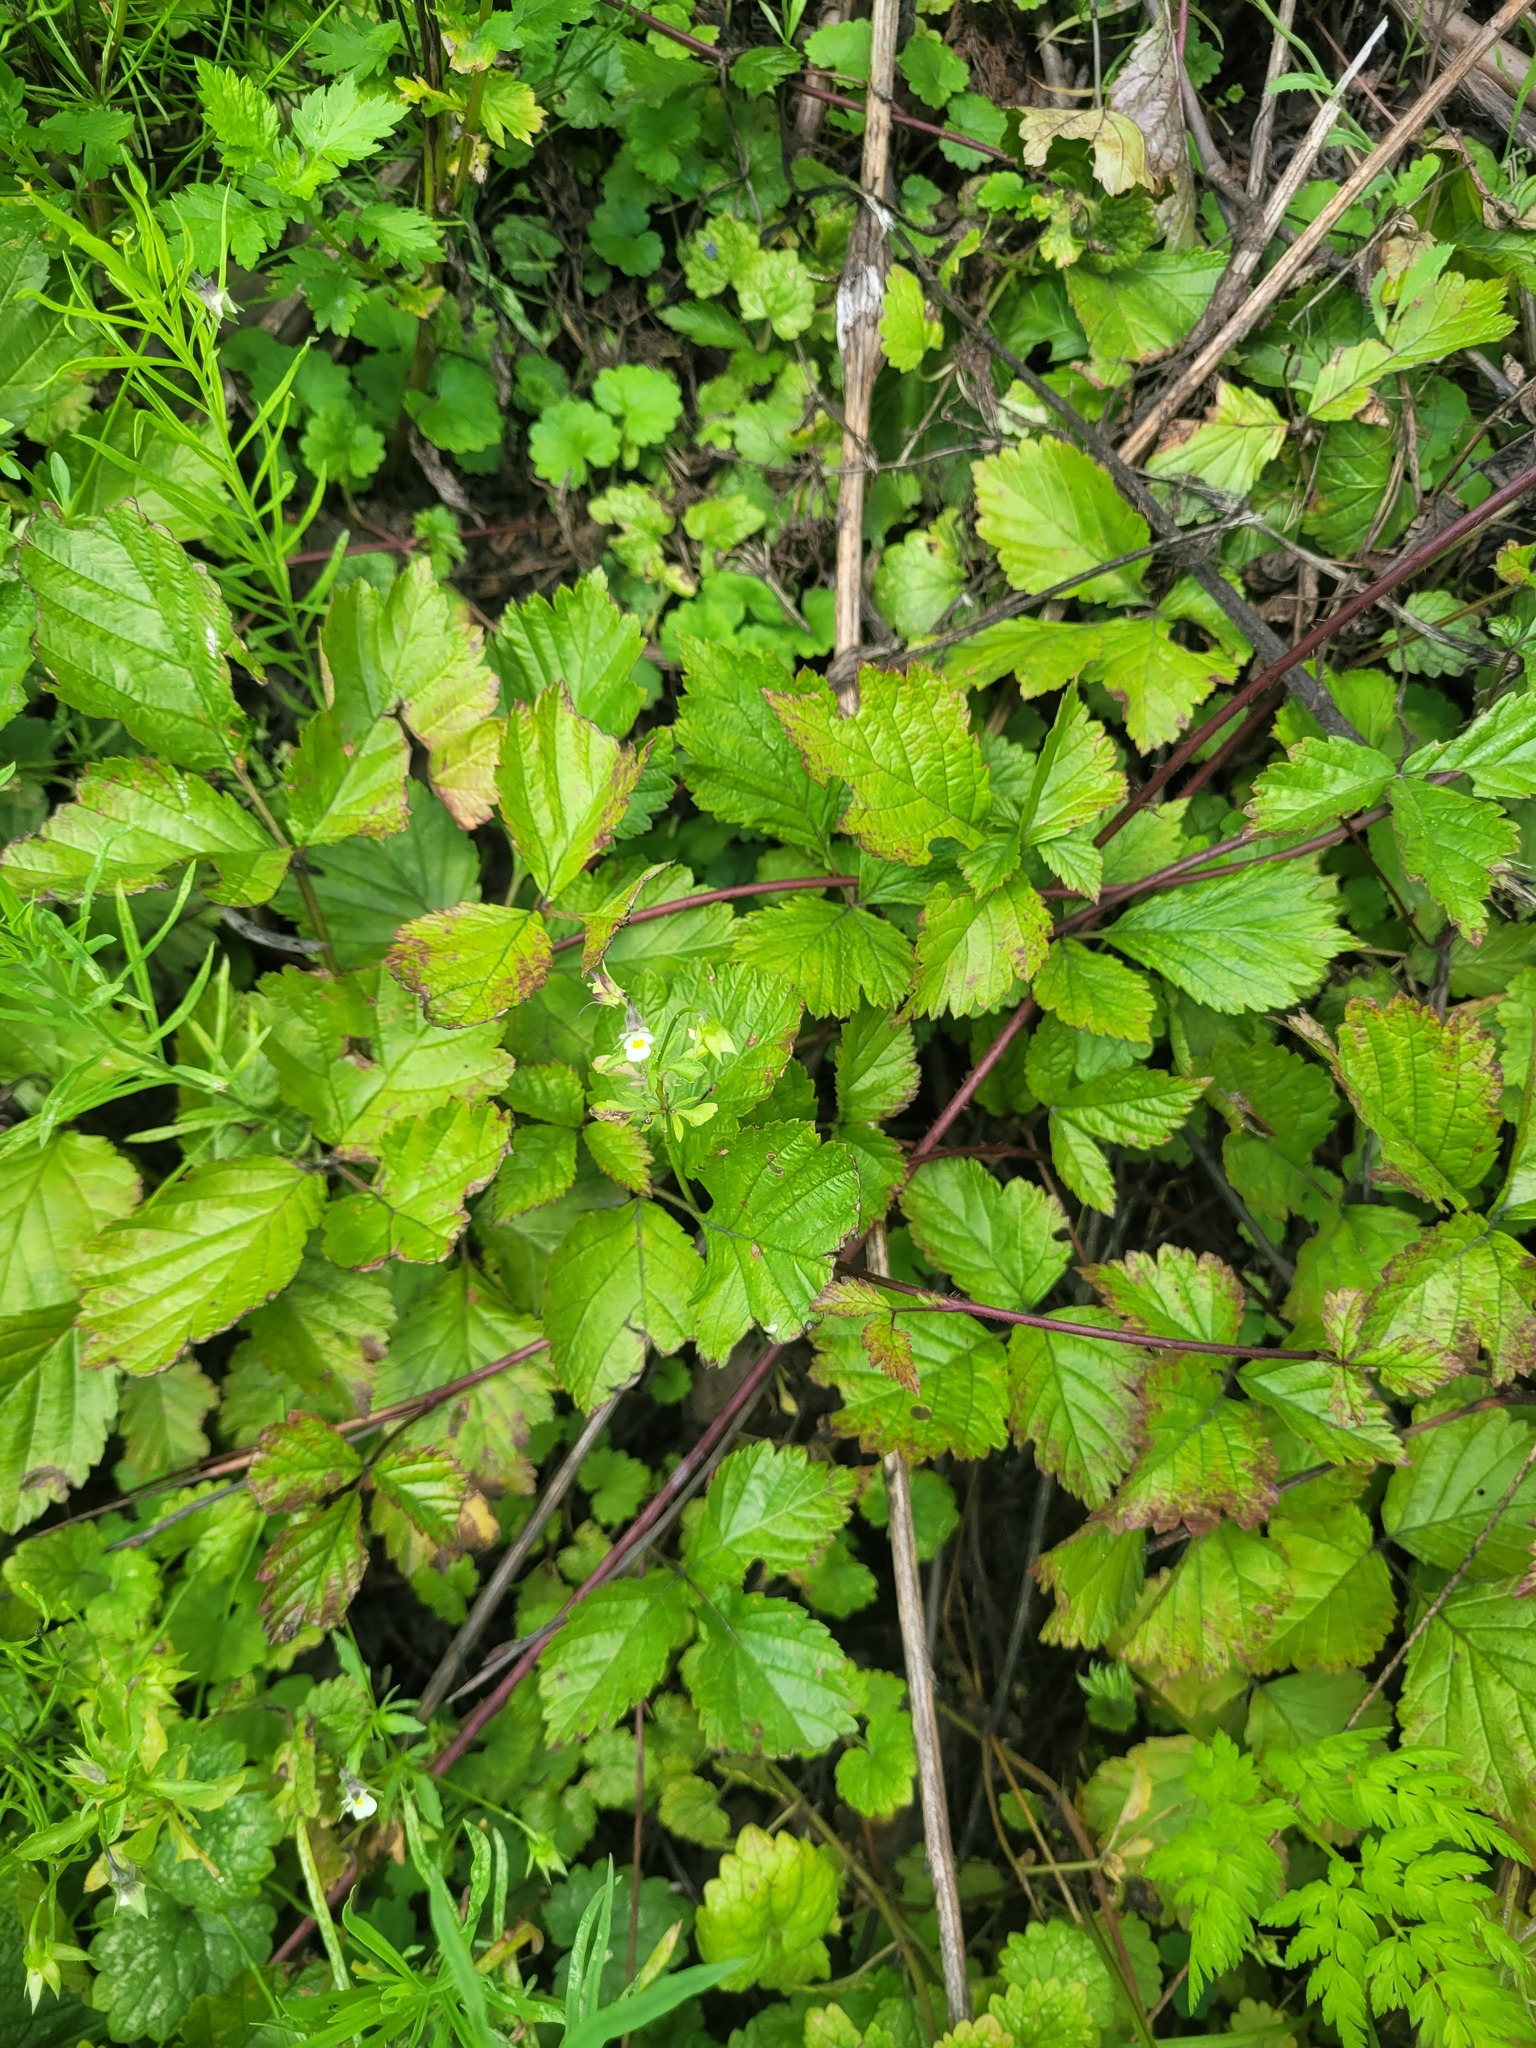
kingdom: Plantae
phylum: Tracheophyta
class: Magnoliopsida
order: Malpighiales
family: Violaceae
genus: Viola
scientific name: Viola arvensis
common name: Field pansy
